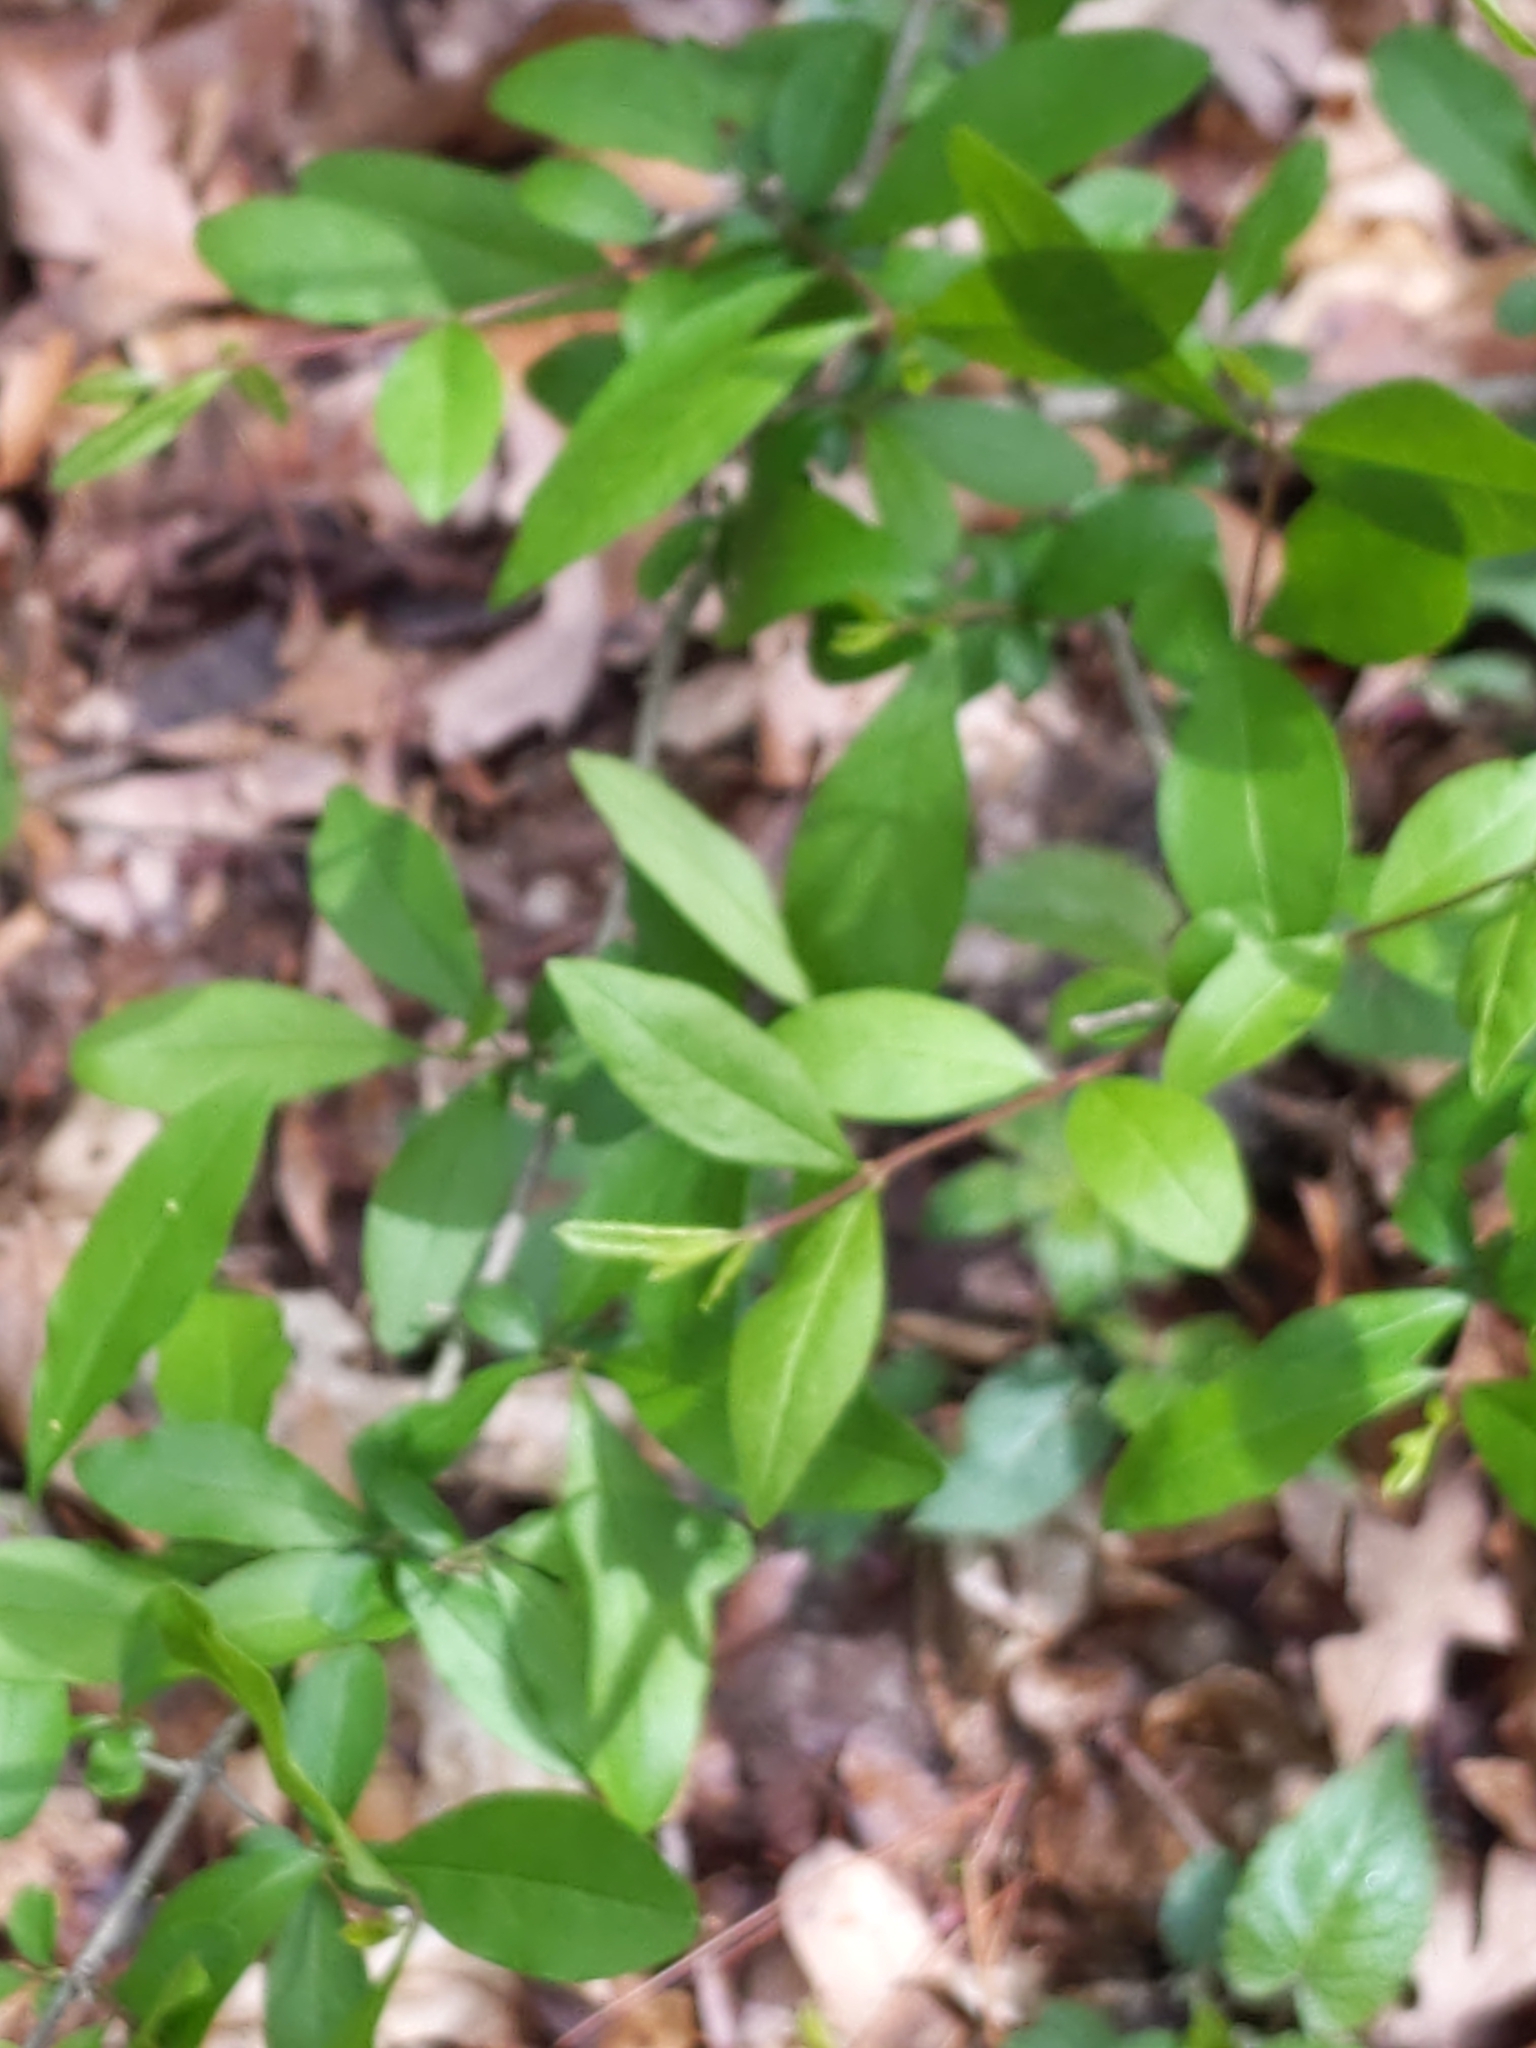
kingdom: Plantae
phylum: Tracheophyta
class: Magnoliopsida
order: Lamiales
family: Oleaceae
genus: Ligustrum
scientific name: Ligustrum obtusifolium
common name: Border privet
